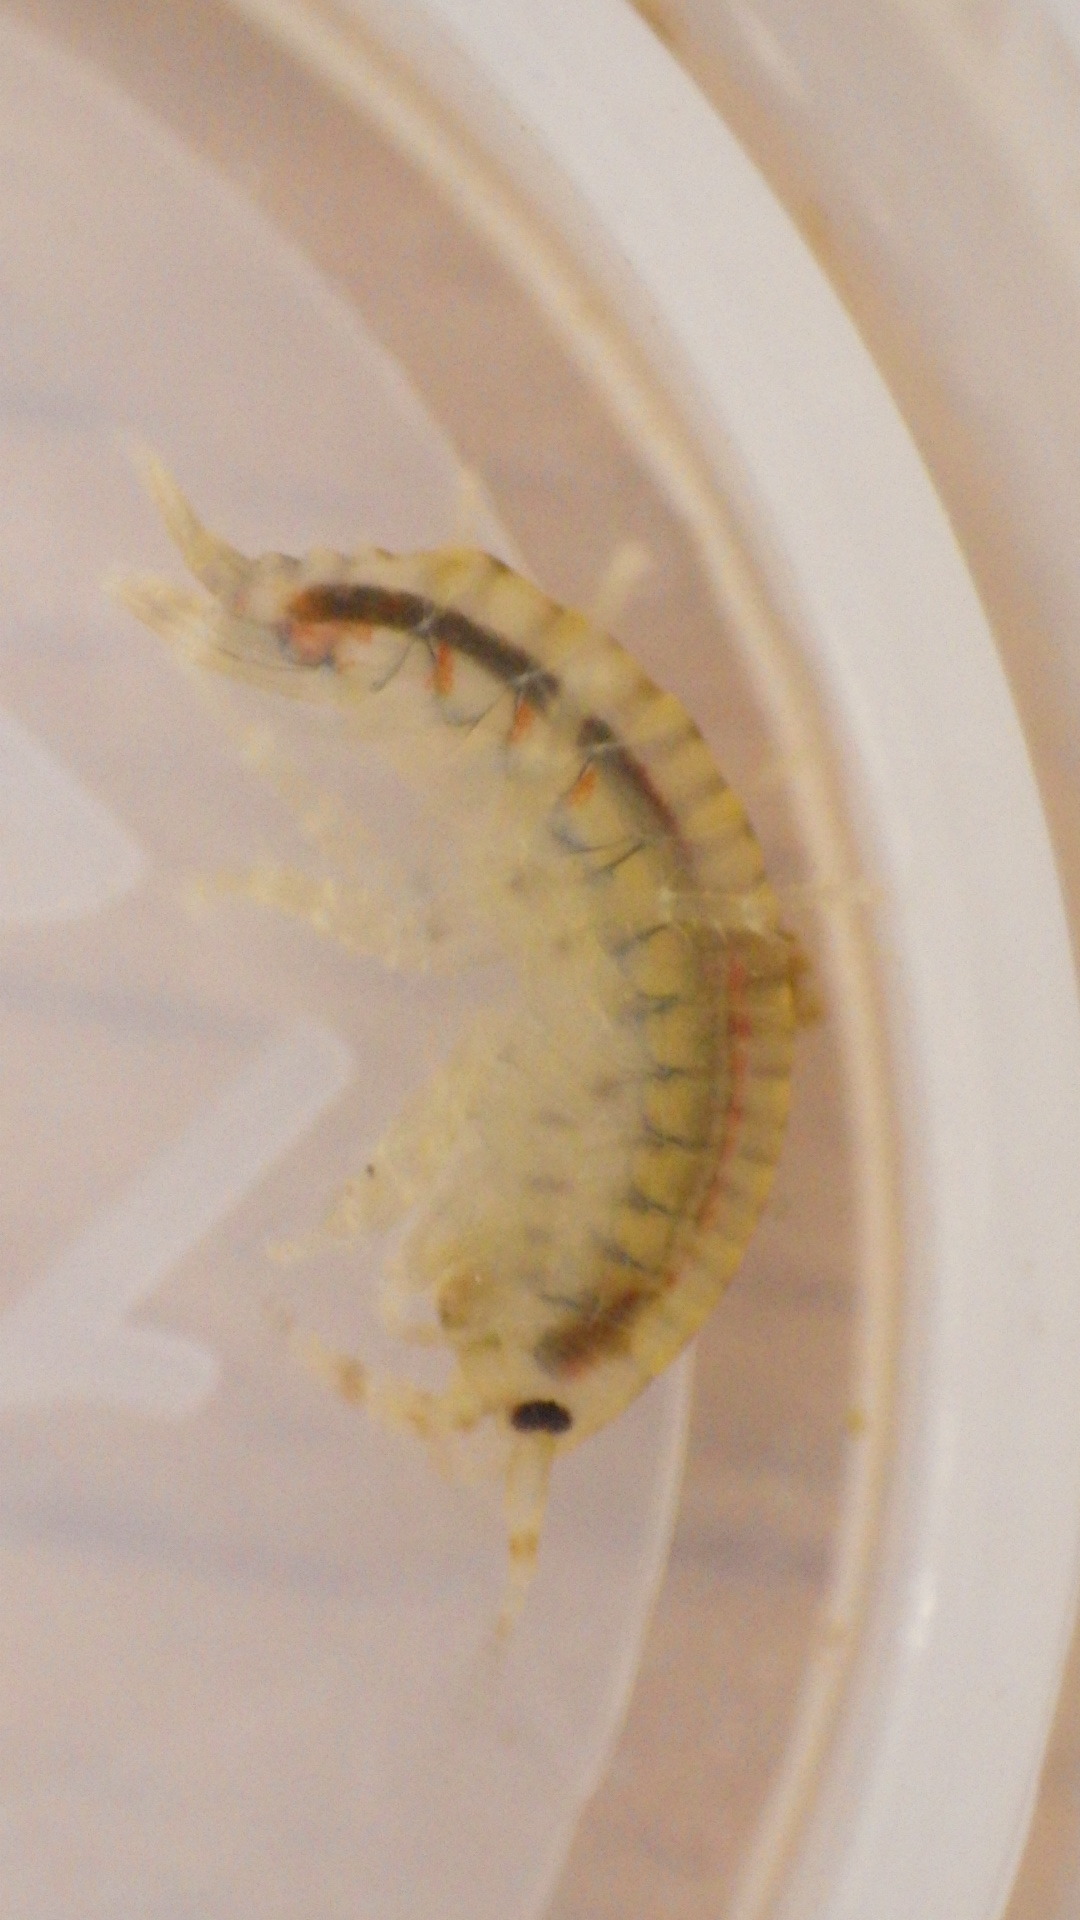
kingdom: Animalia
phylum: Arthropoda
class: Malacostraca
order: Amphipoda
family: Gammaridae
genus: Gammarus
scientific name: Gammarus fasciatus
